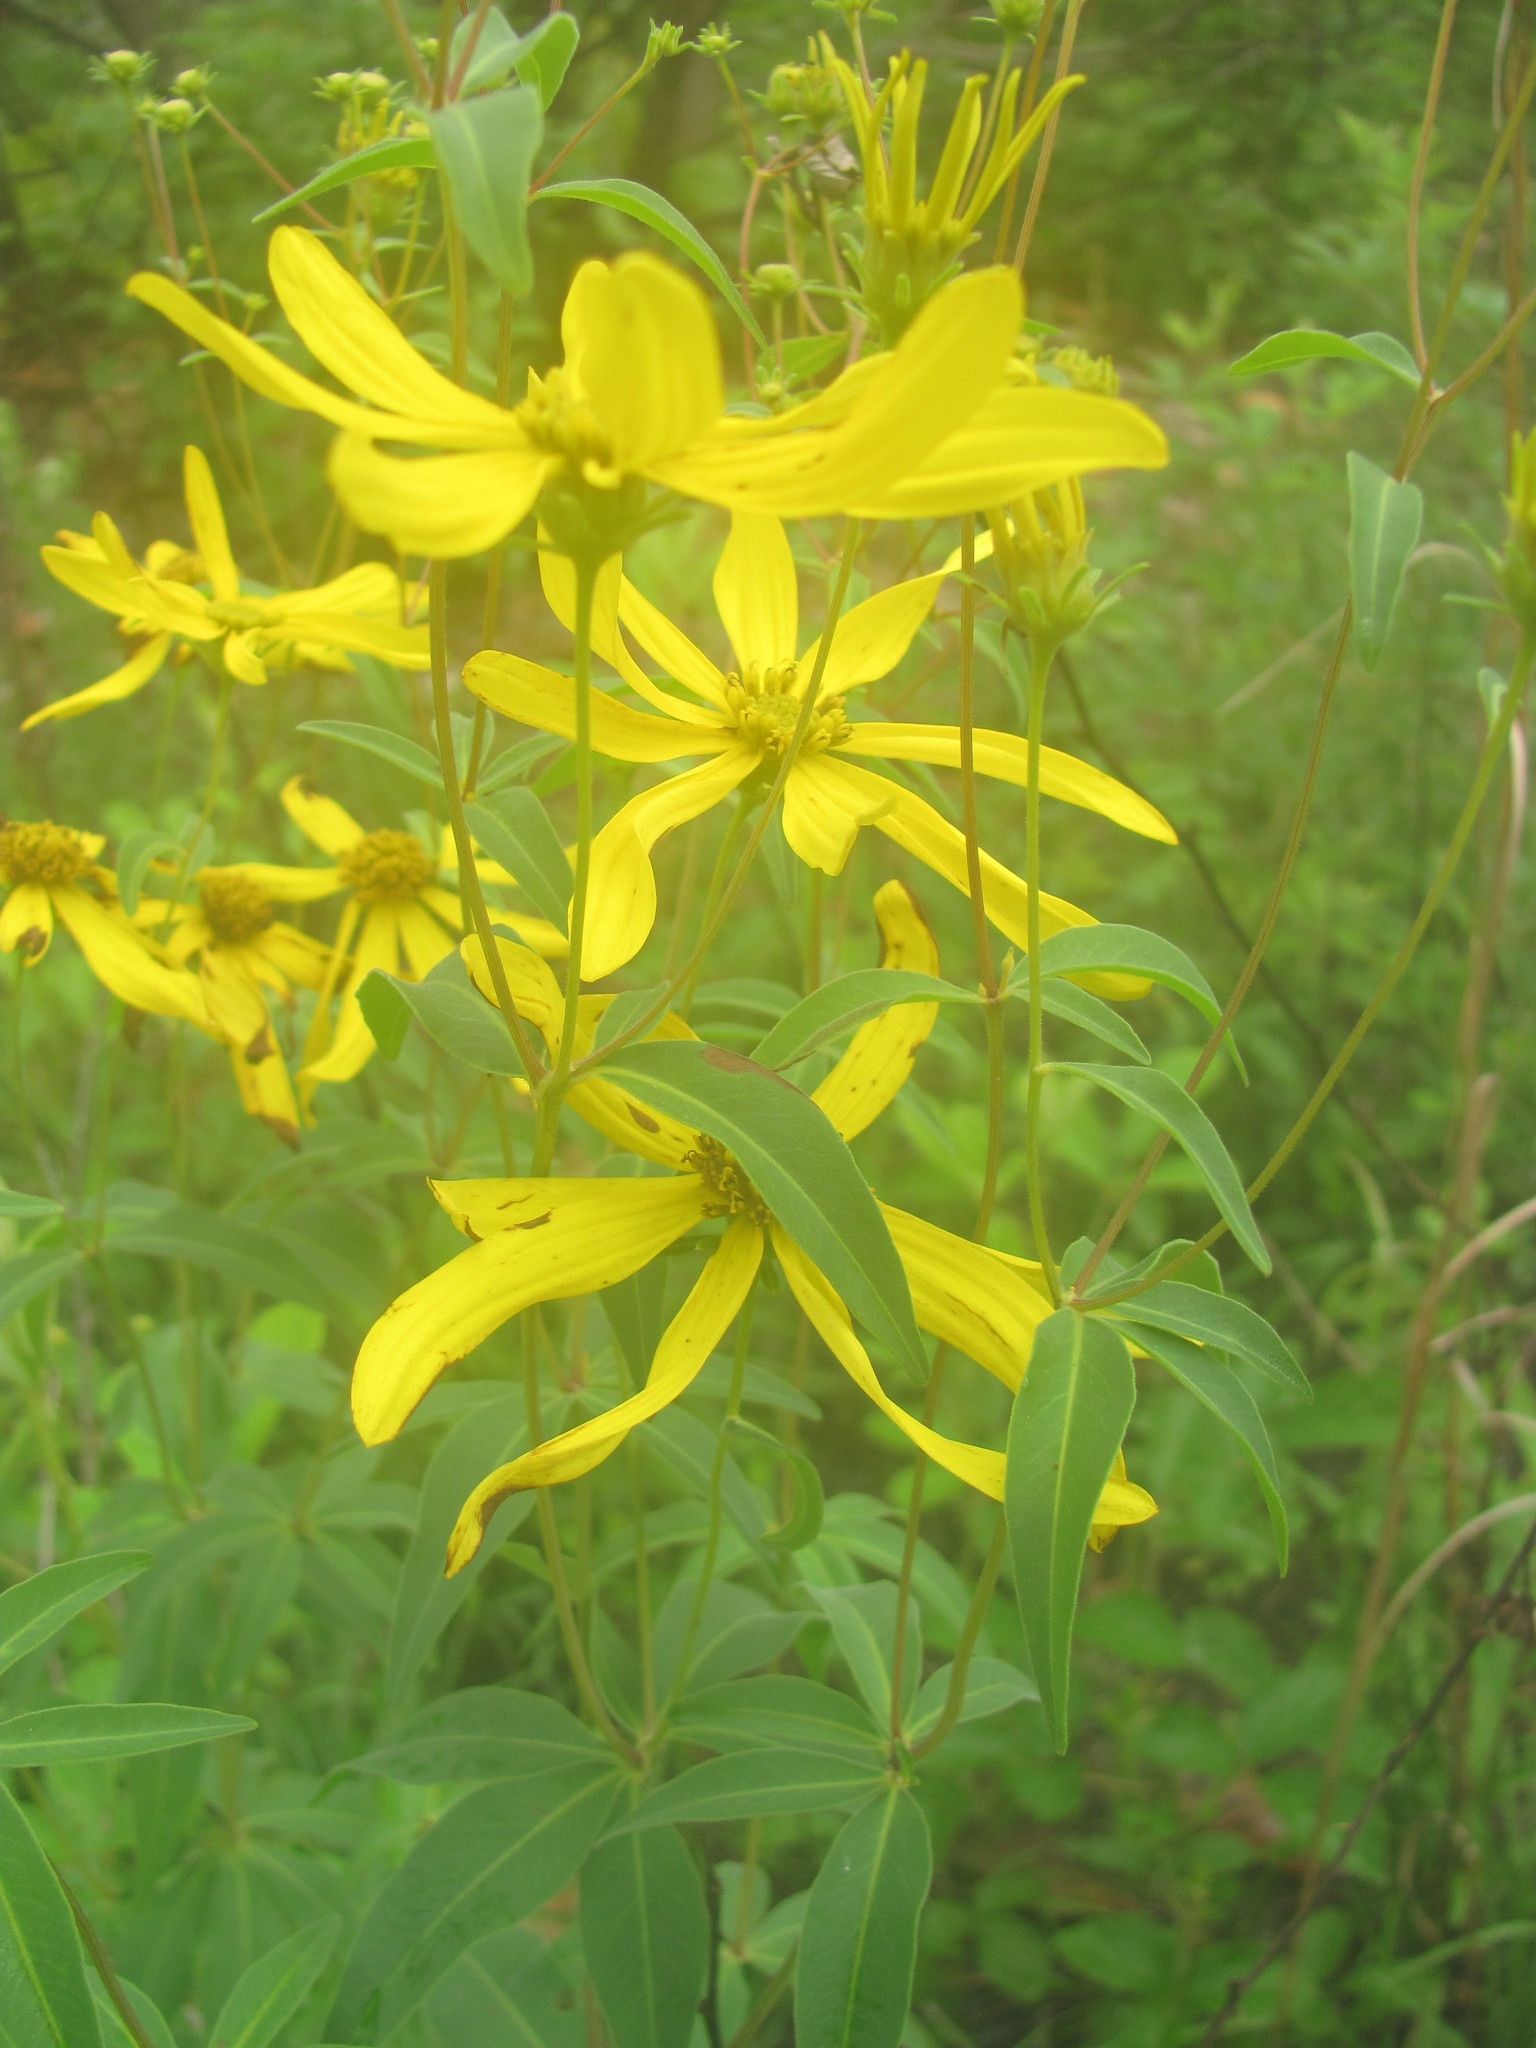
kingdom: Plantae
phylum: Tracheophyta
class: Magnoliopsida
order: Asterales
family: Asteraceae
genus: Coreopsis
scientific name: Coreopsis major
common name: Forest tickseed
